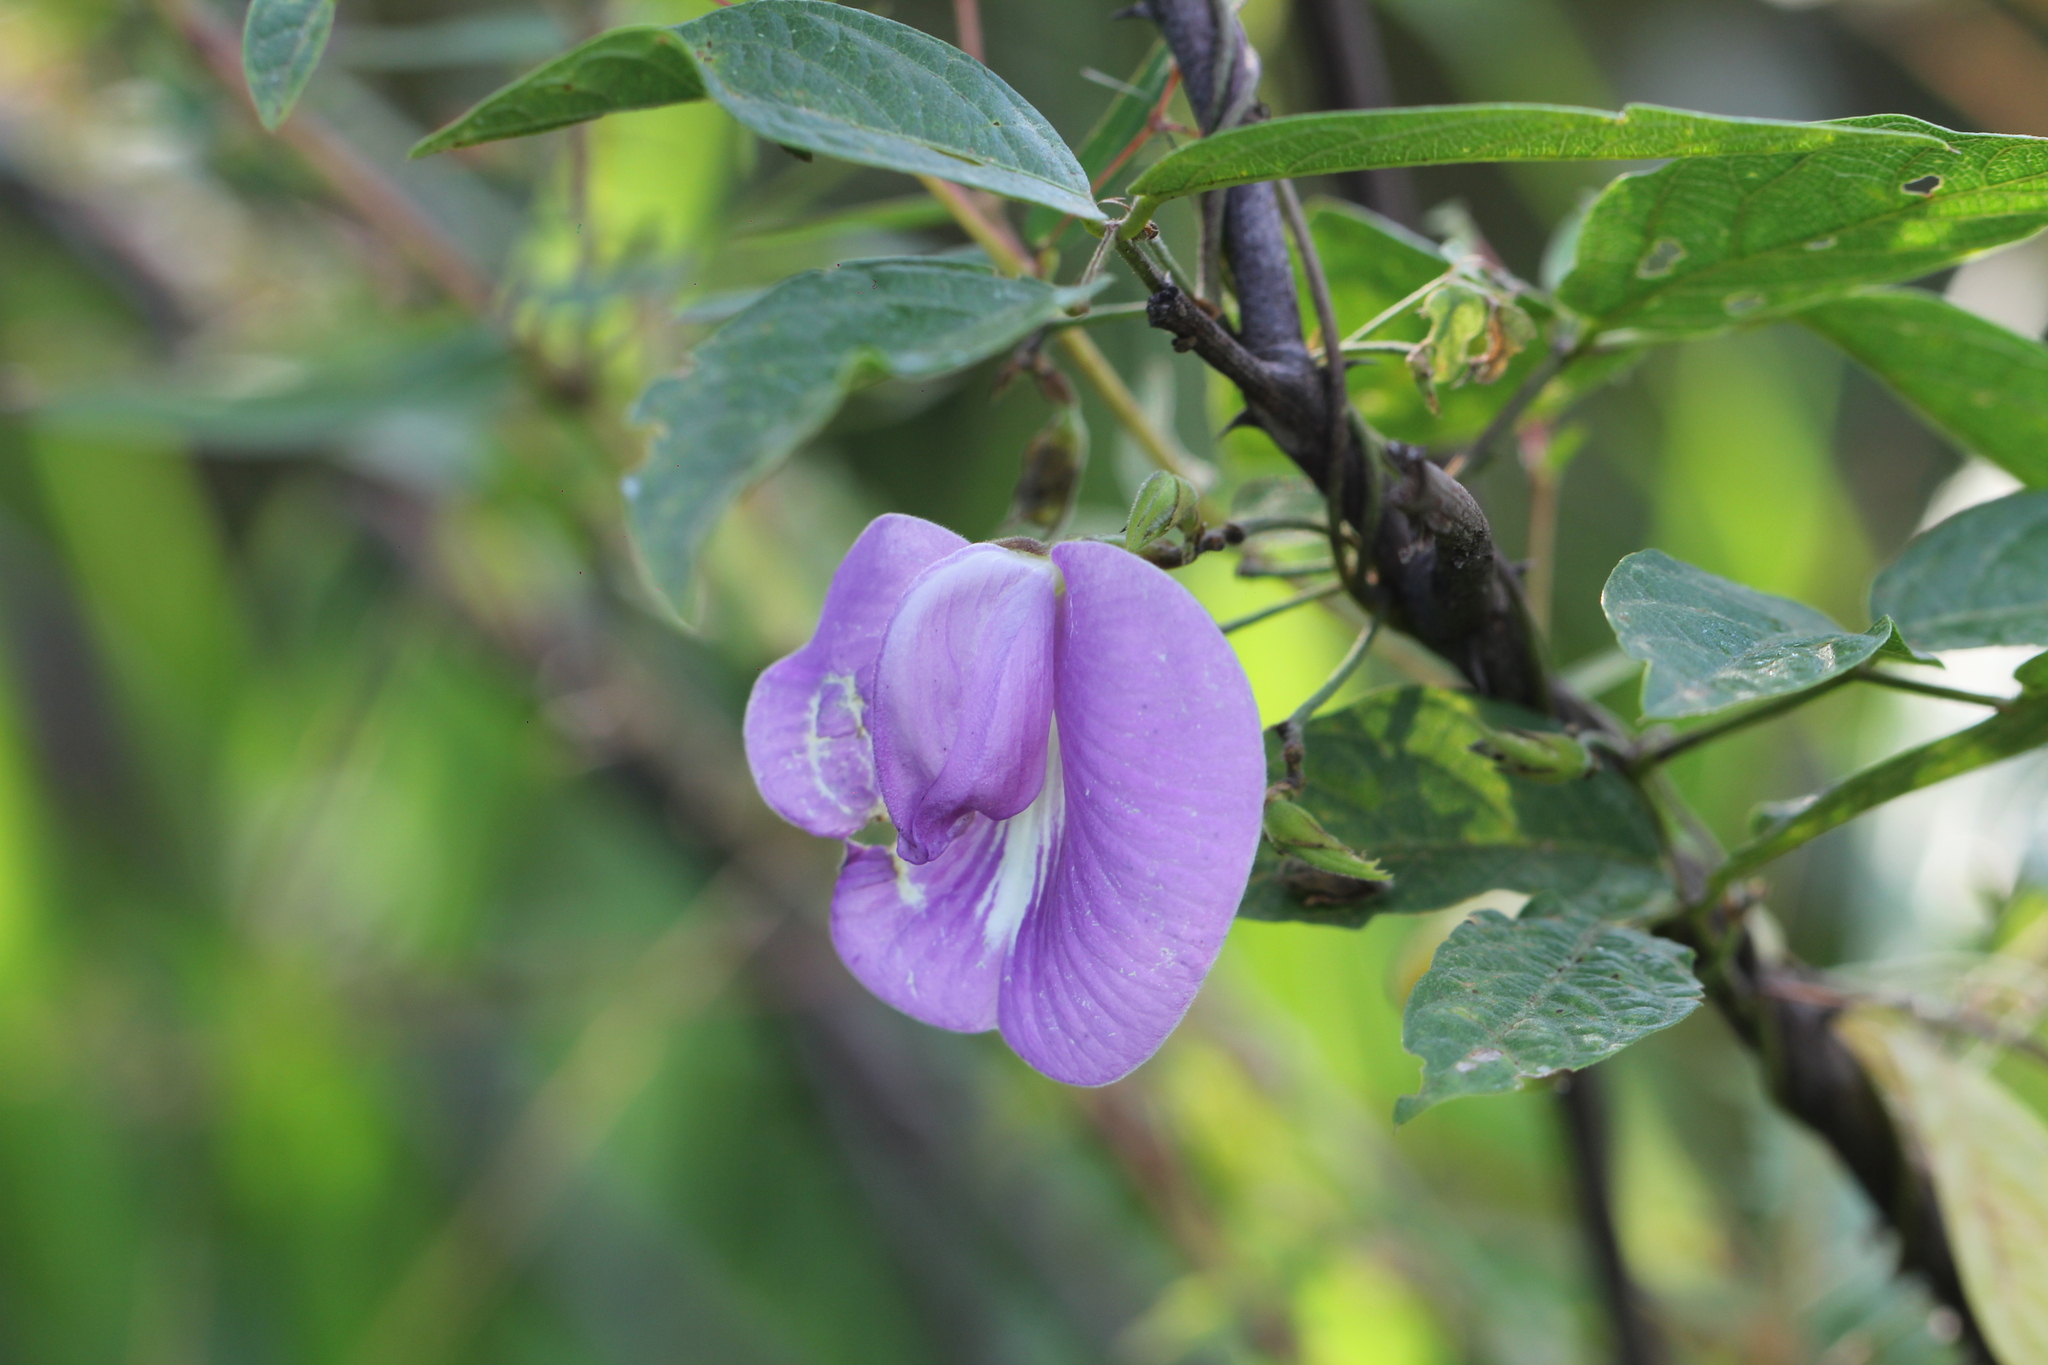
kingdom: Plantae
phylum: Tracheophyta
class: Magnoliopsida
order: Fabales
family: Fabaceae
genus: Centrosema
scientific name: Centrosema virginianum
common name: Butterfly-pea
